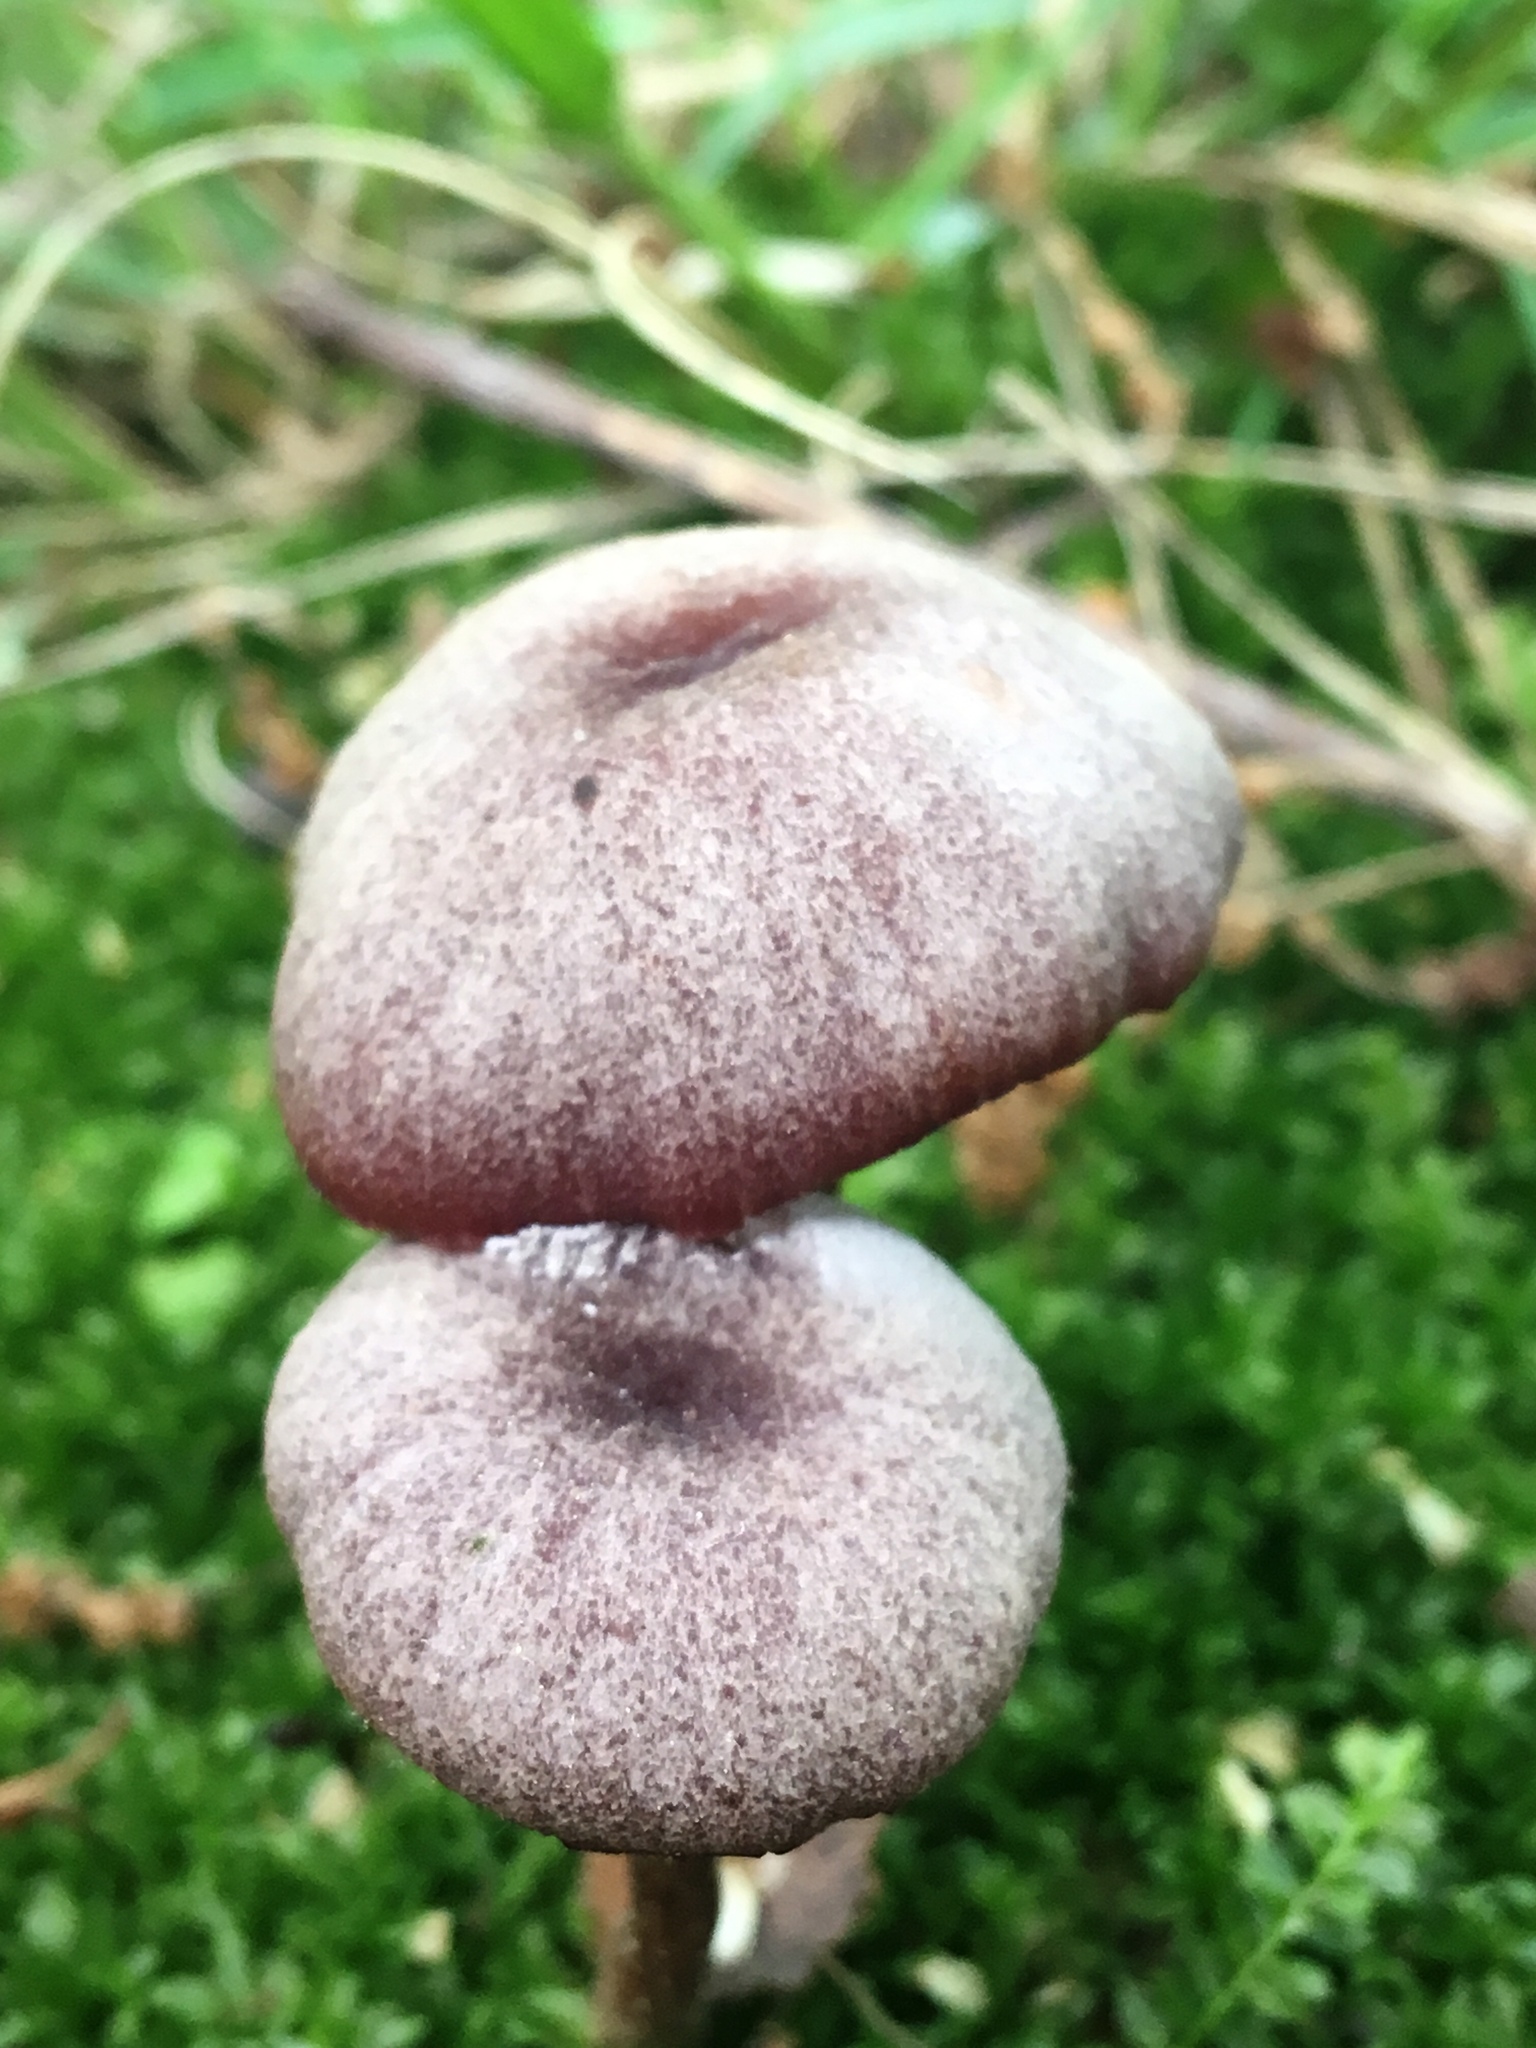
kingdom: Fungi
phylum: Basidiomycota
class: Agaricomycetes
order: Agaricales
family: Hydnangiaceae
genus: Laccaria
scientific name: Laccaria amethystina
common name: Amethyst deceiver
